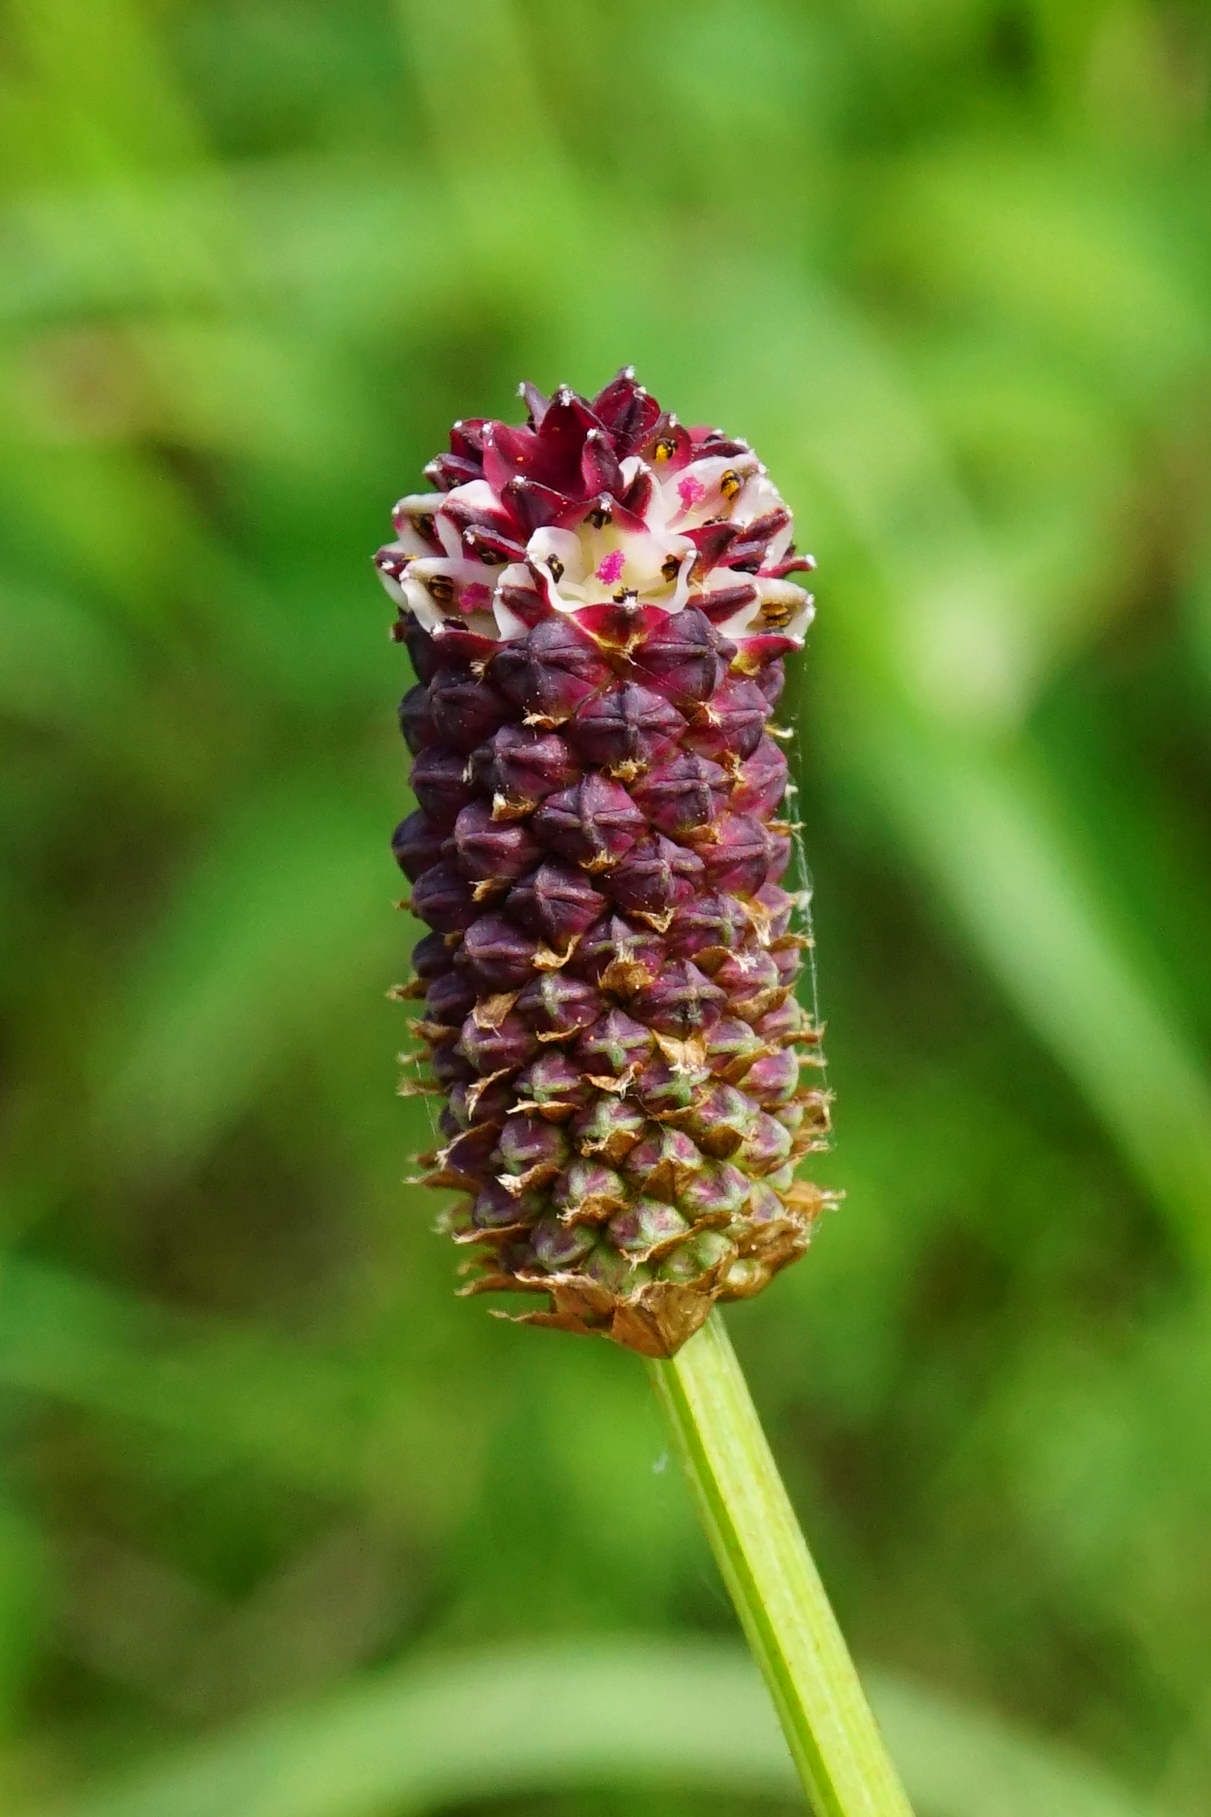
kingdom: Plantae
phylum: Tracheophyta
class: Magnoliopsida
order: Rosales
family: Rosaceae
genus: Sanguisorba
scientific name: Sanguisorba officinalis
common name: Great burnet
